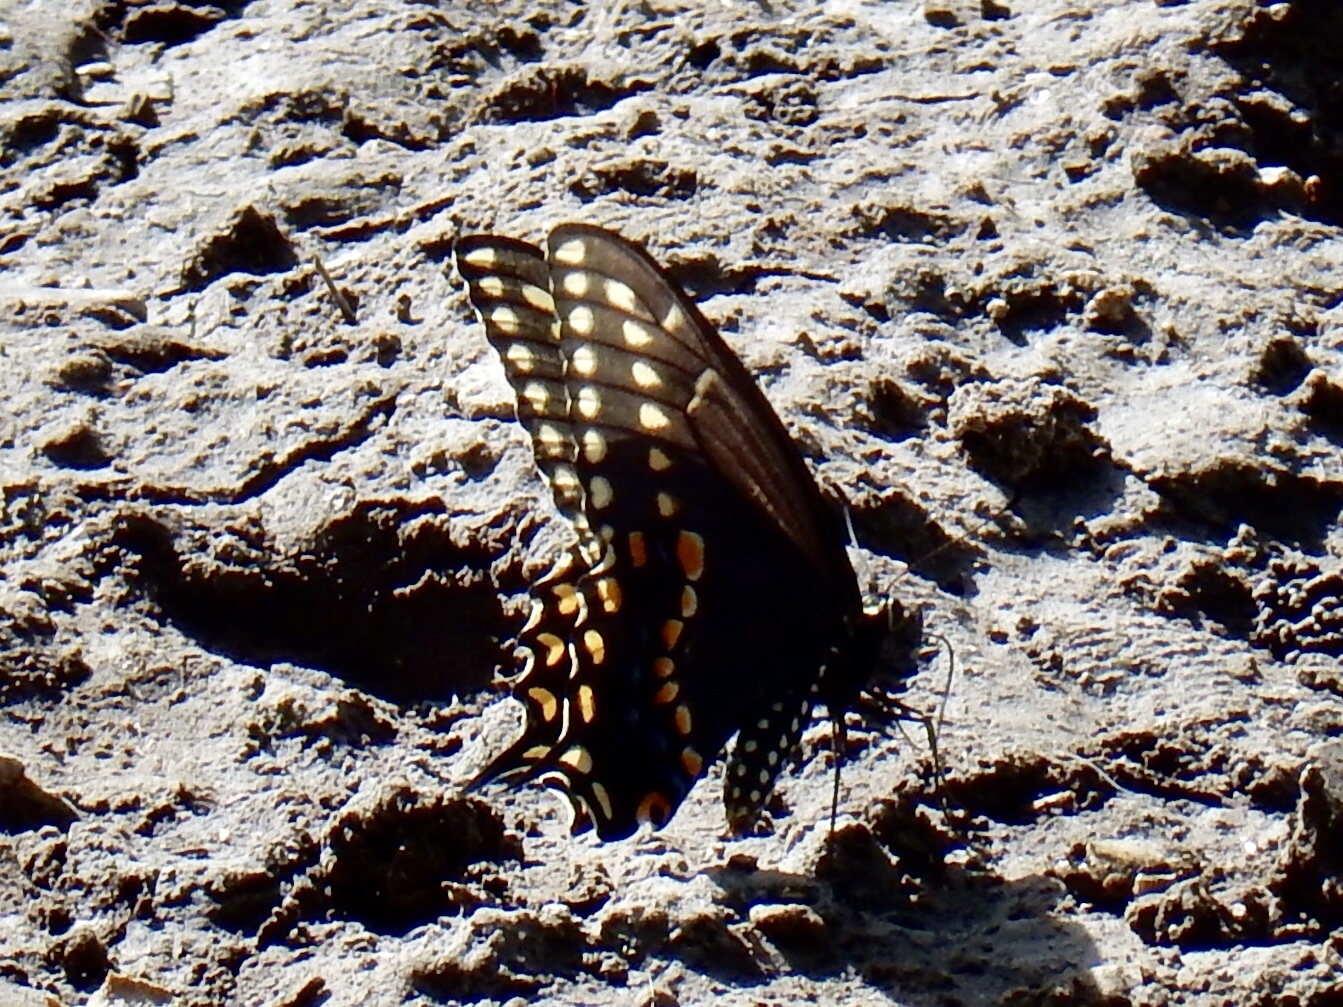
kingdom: Animalia
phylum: Arthropoda
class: Insecta
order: Lepidoptera
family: Papilionidae
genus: Papilio
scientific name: Papilio polyxenes
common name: Black swallowtail
